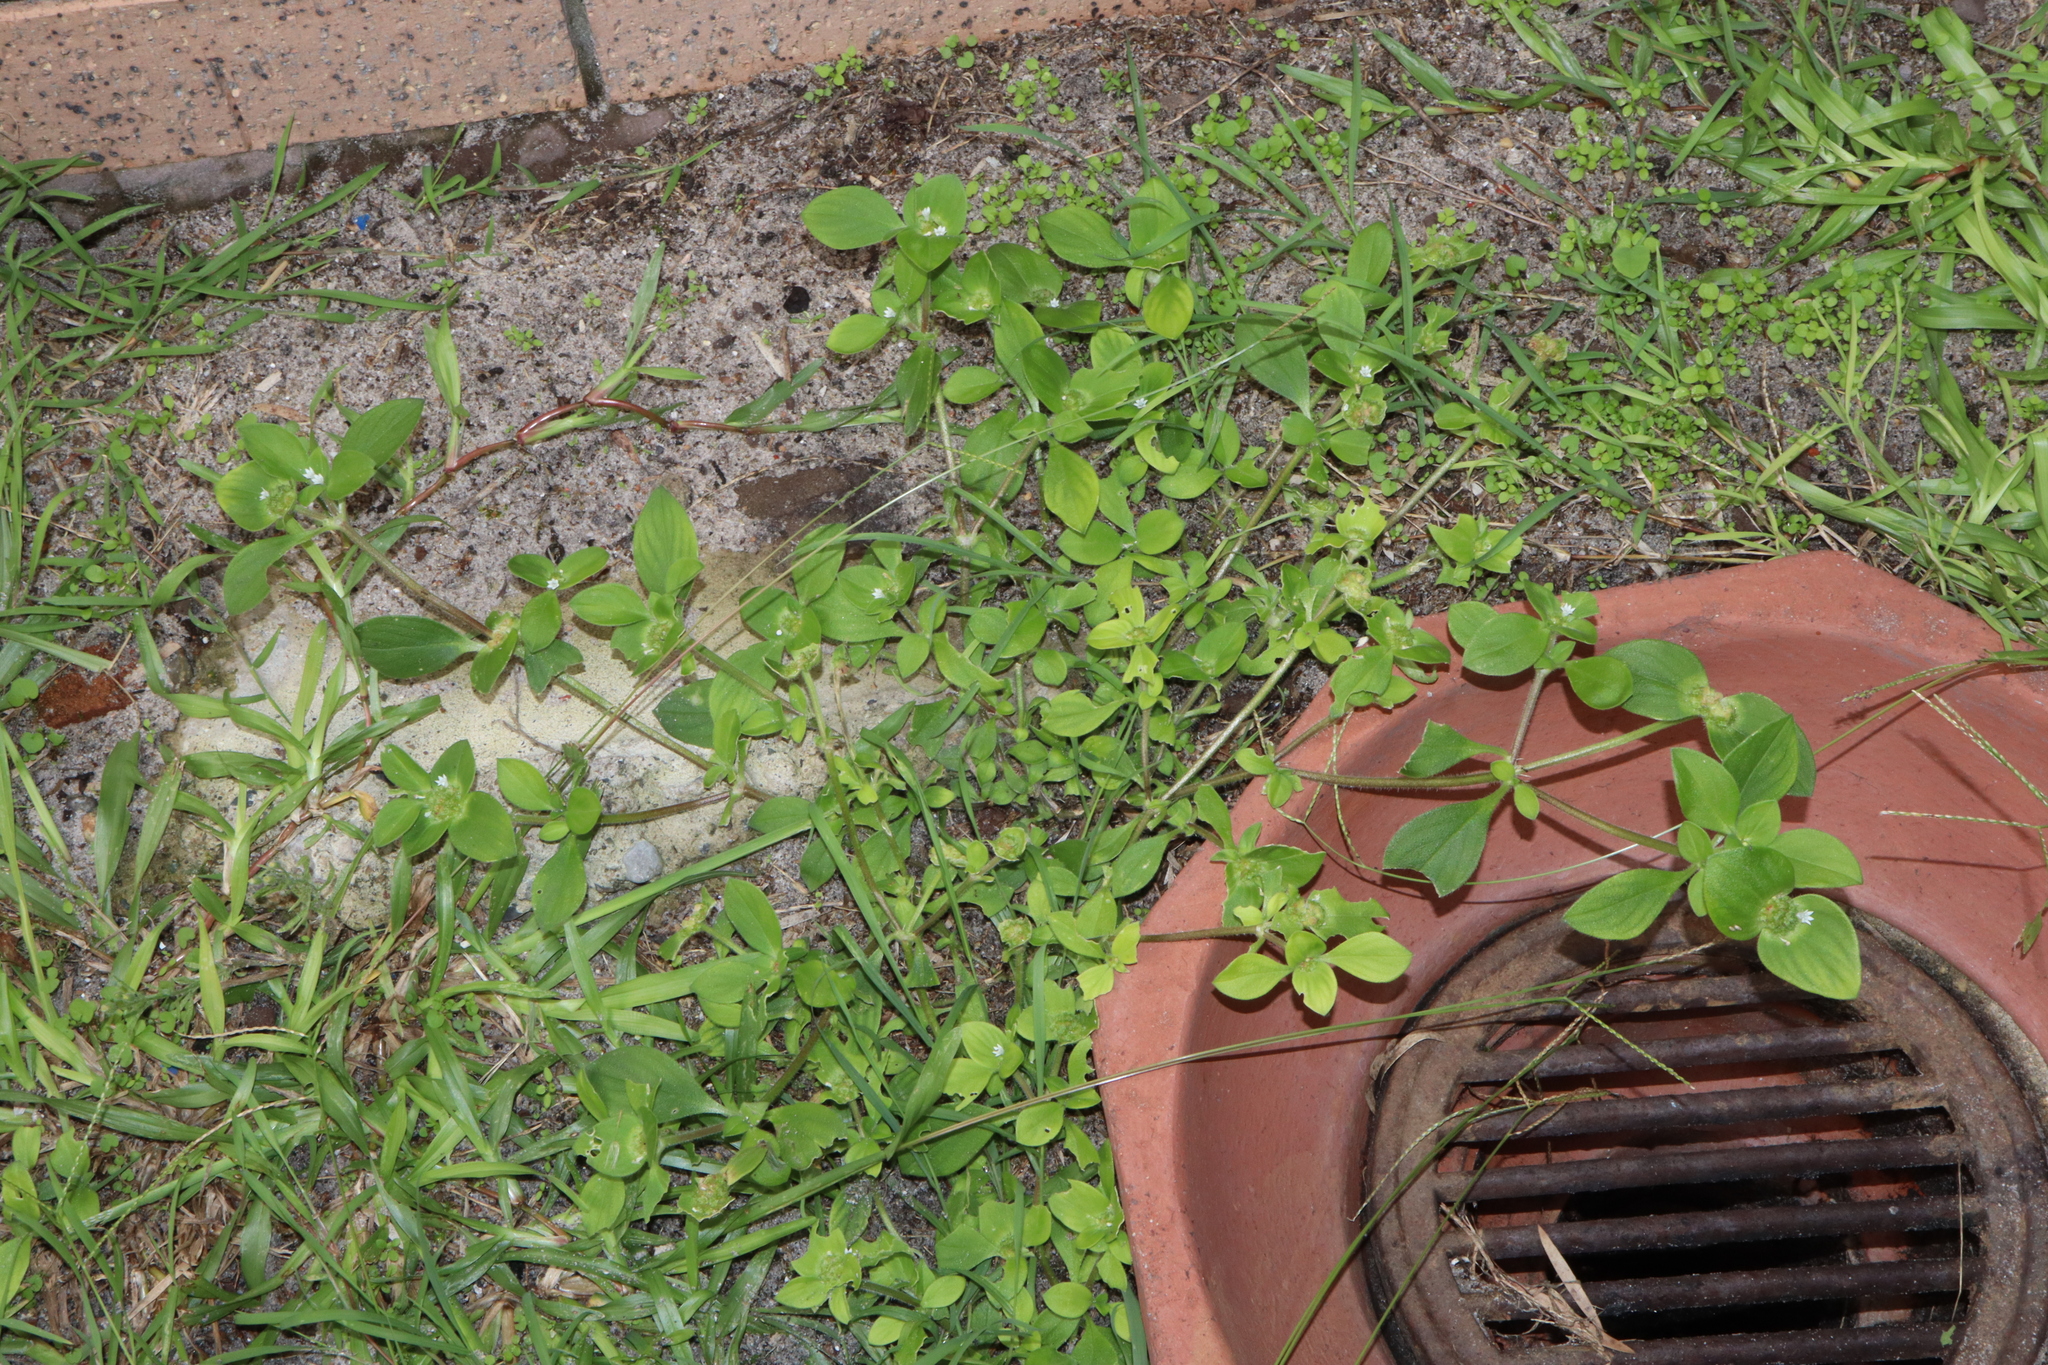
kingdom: Plantae
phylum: Tracheophyta
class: Magnoliopsida
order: Gentianales
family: Rubiaceae
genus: Richardia
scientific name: Richardia brasiliensis
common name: Tropical mexican clover
